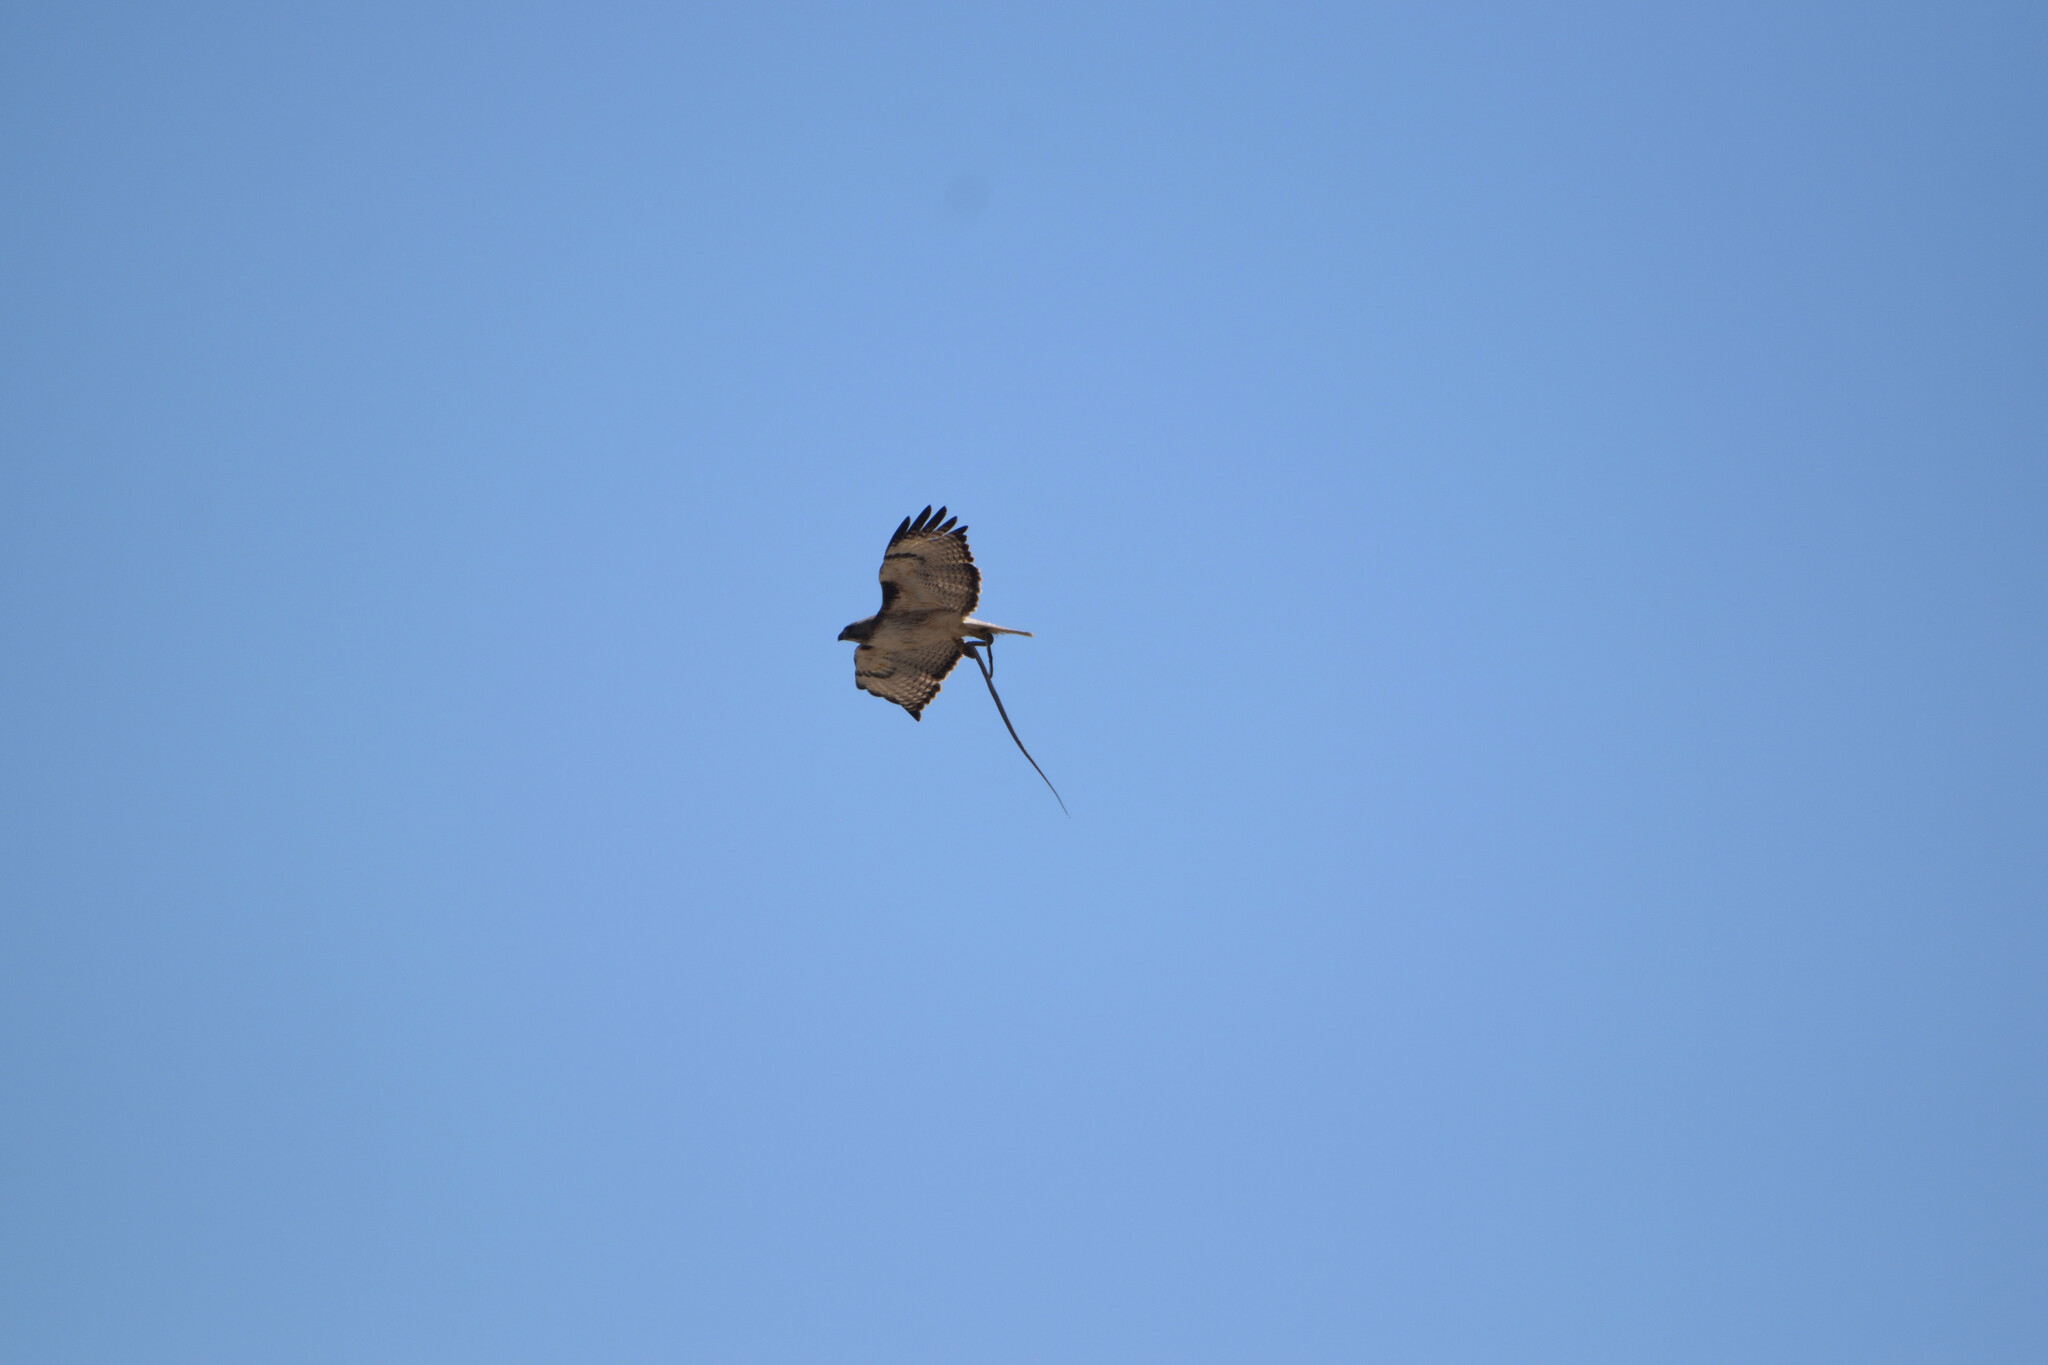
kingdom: Animalia
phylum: Chordata
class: Aves
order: Accipitriformes
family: Accipitridae
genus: Buteo
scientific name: Buteo jamaicensis
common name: Red-tailed hawk
